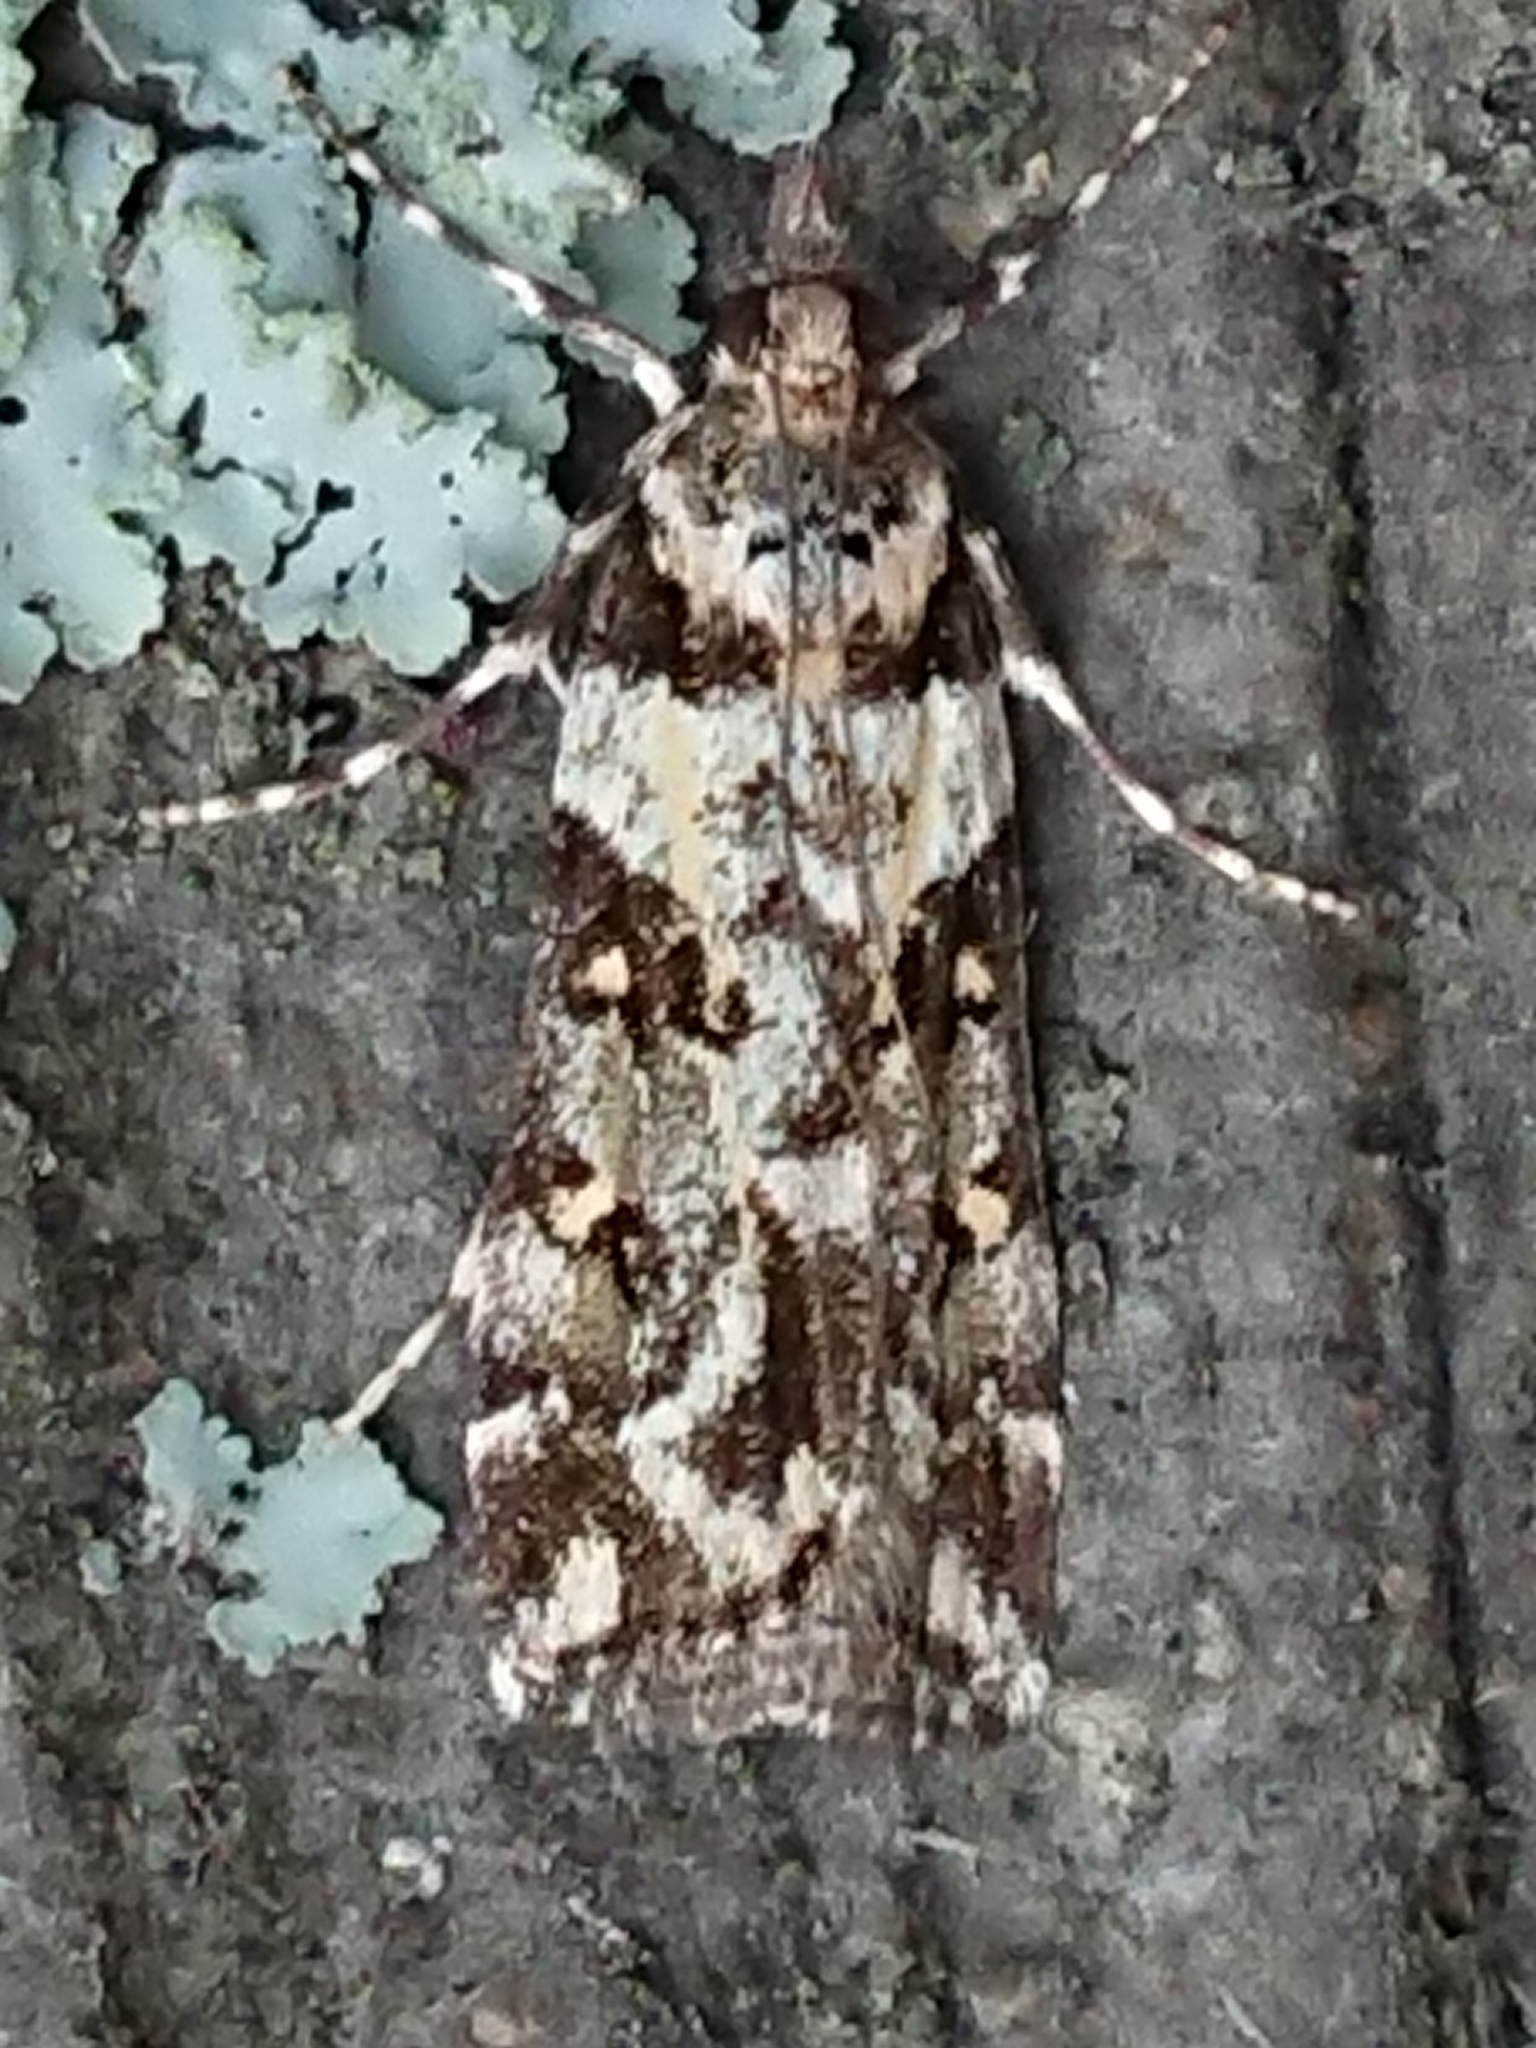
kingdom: Animalia
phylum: Arthropoda
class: Insecta
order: Lepidoptera
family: Crambidae
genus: Eudonia
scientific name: Eudonia diphtheralis
